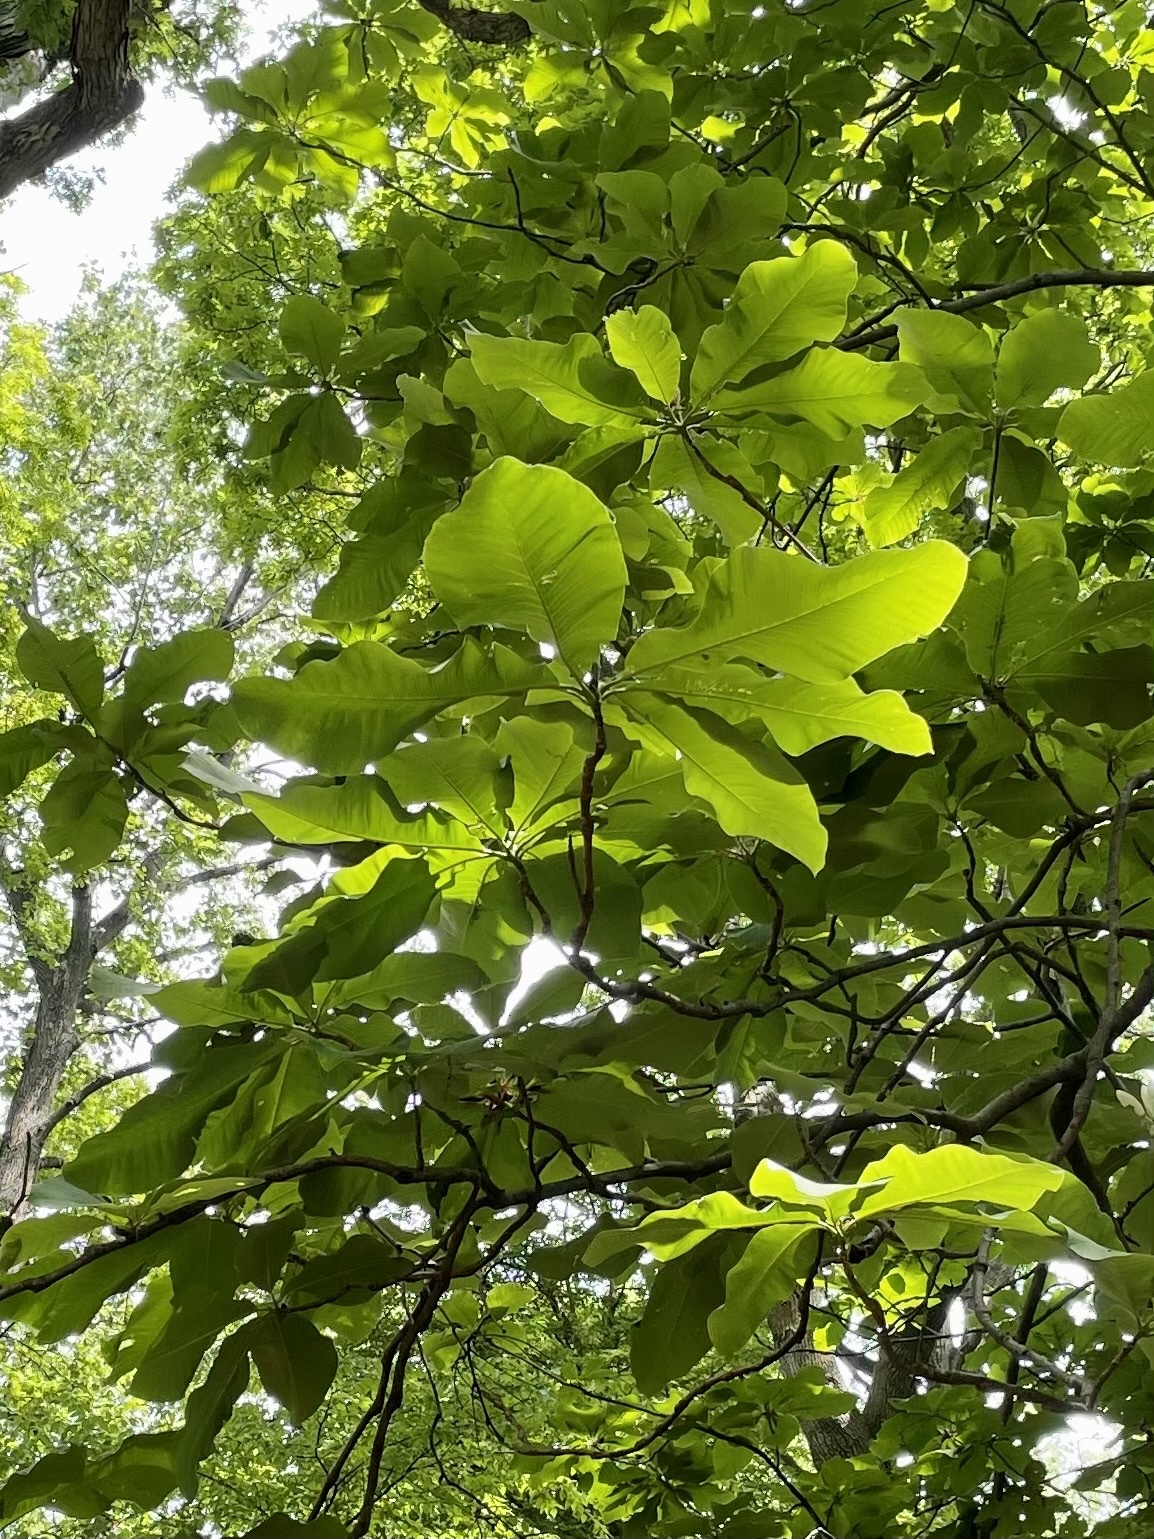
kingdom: Plantae
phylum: Tracheophyta
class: Magnoliopsida
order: Magnoliales
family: Magnoliaceae
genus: Magnolia
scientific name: Magnolia tripetala
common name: Umbrella magnolia
